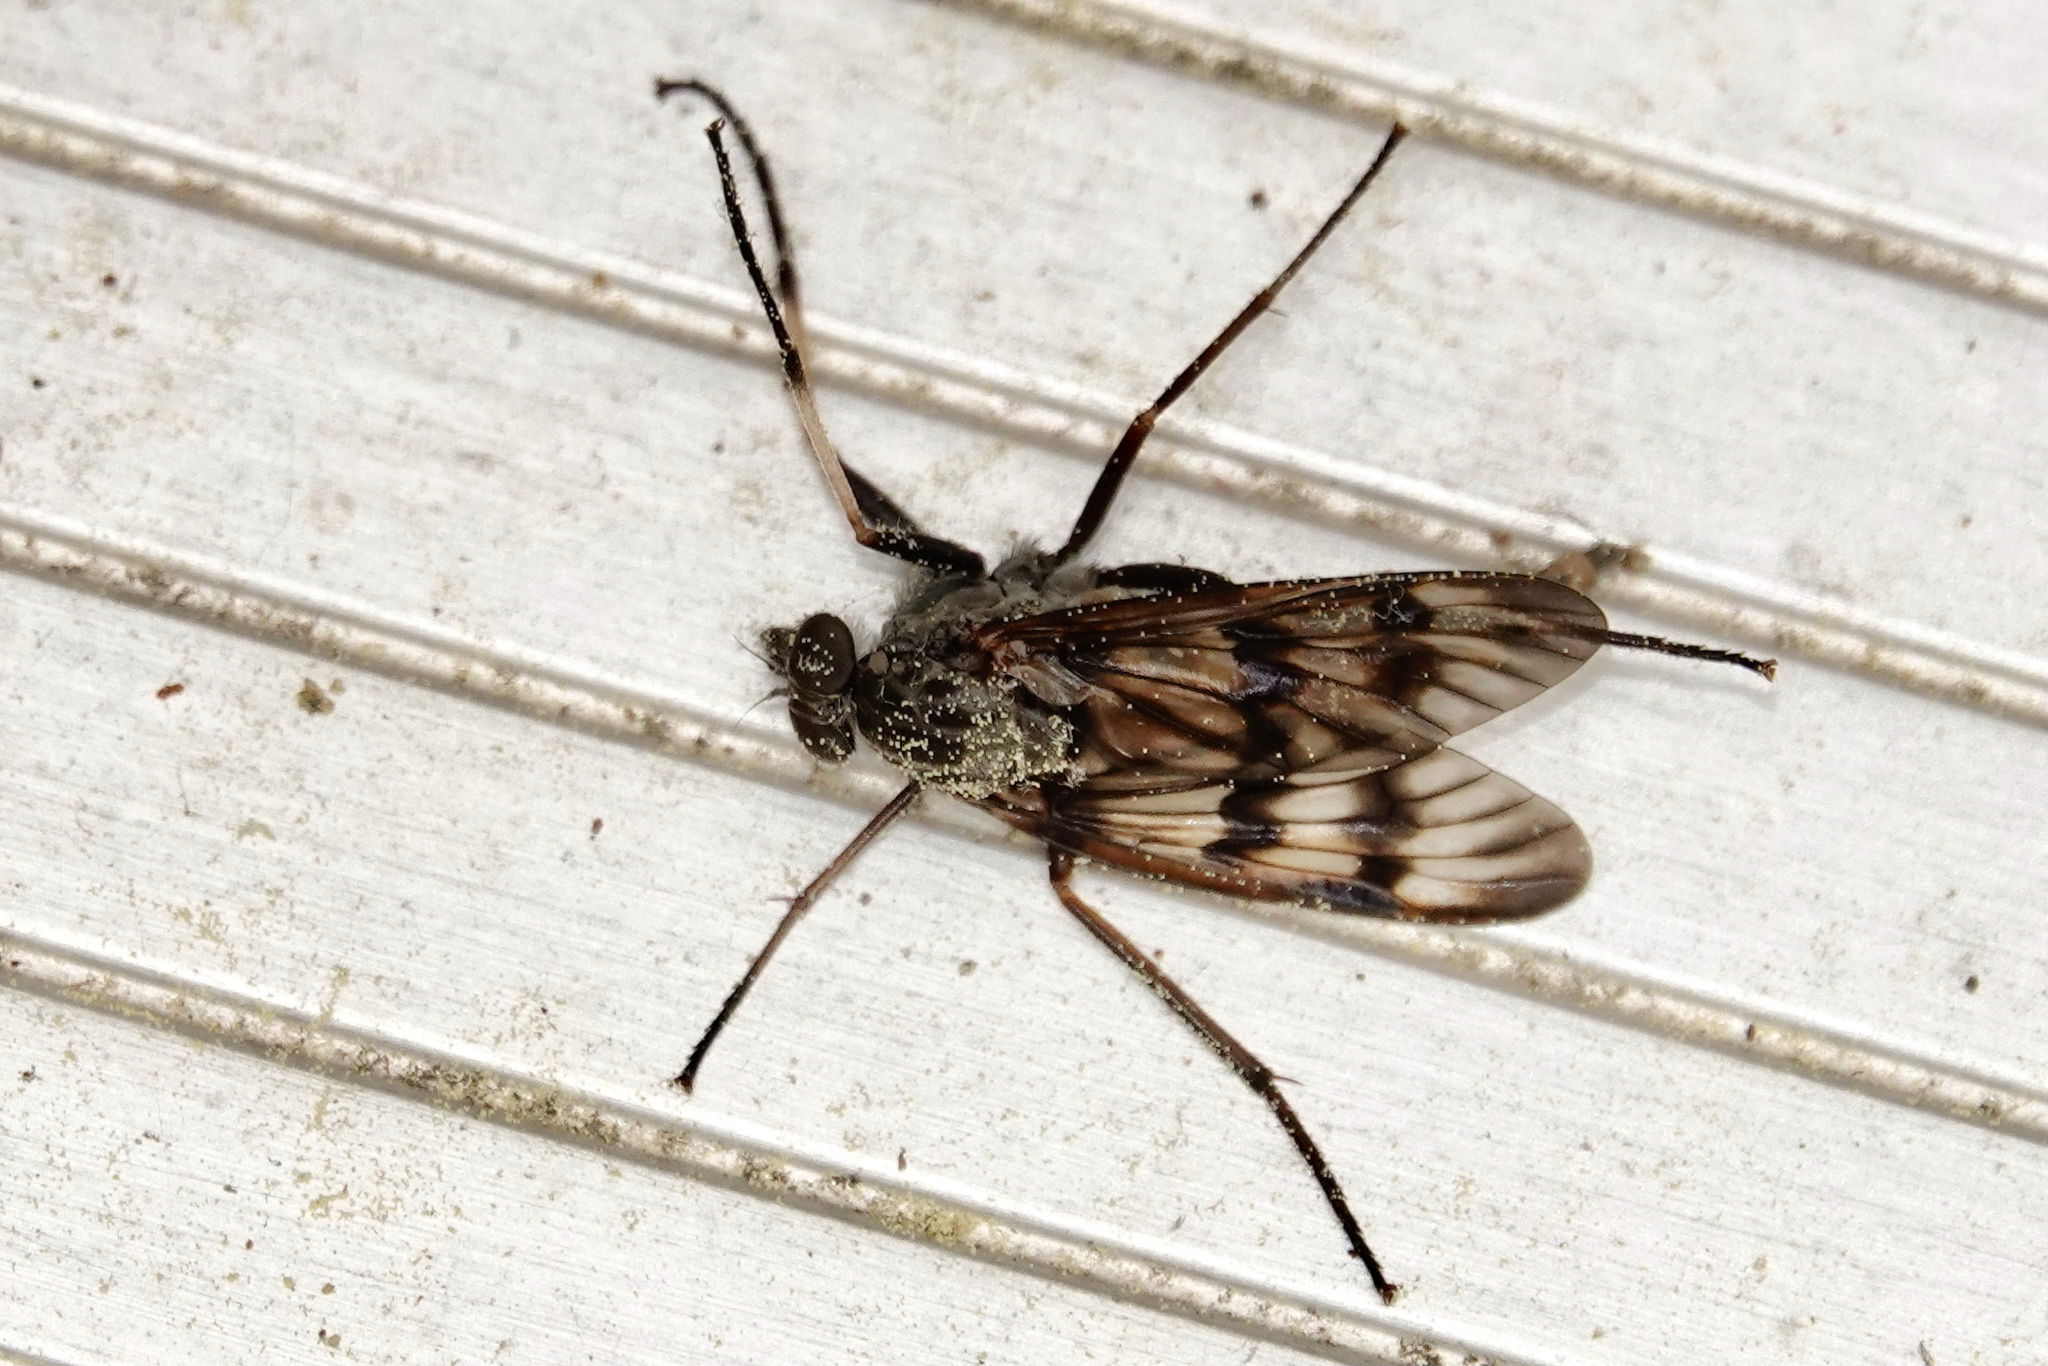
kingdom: Animalia
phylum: Arthropoda
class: Insecta
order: Diptera
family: Rhagionidae
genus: Rhagio
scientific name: Rhagio mystaceus
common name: Common snipe fly
